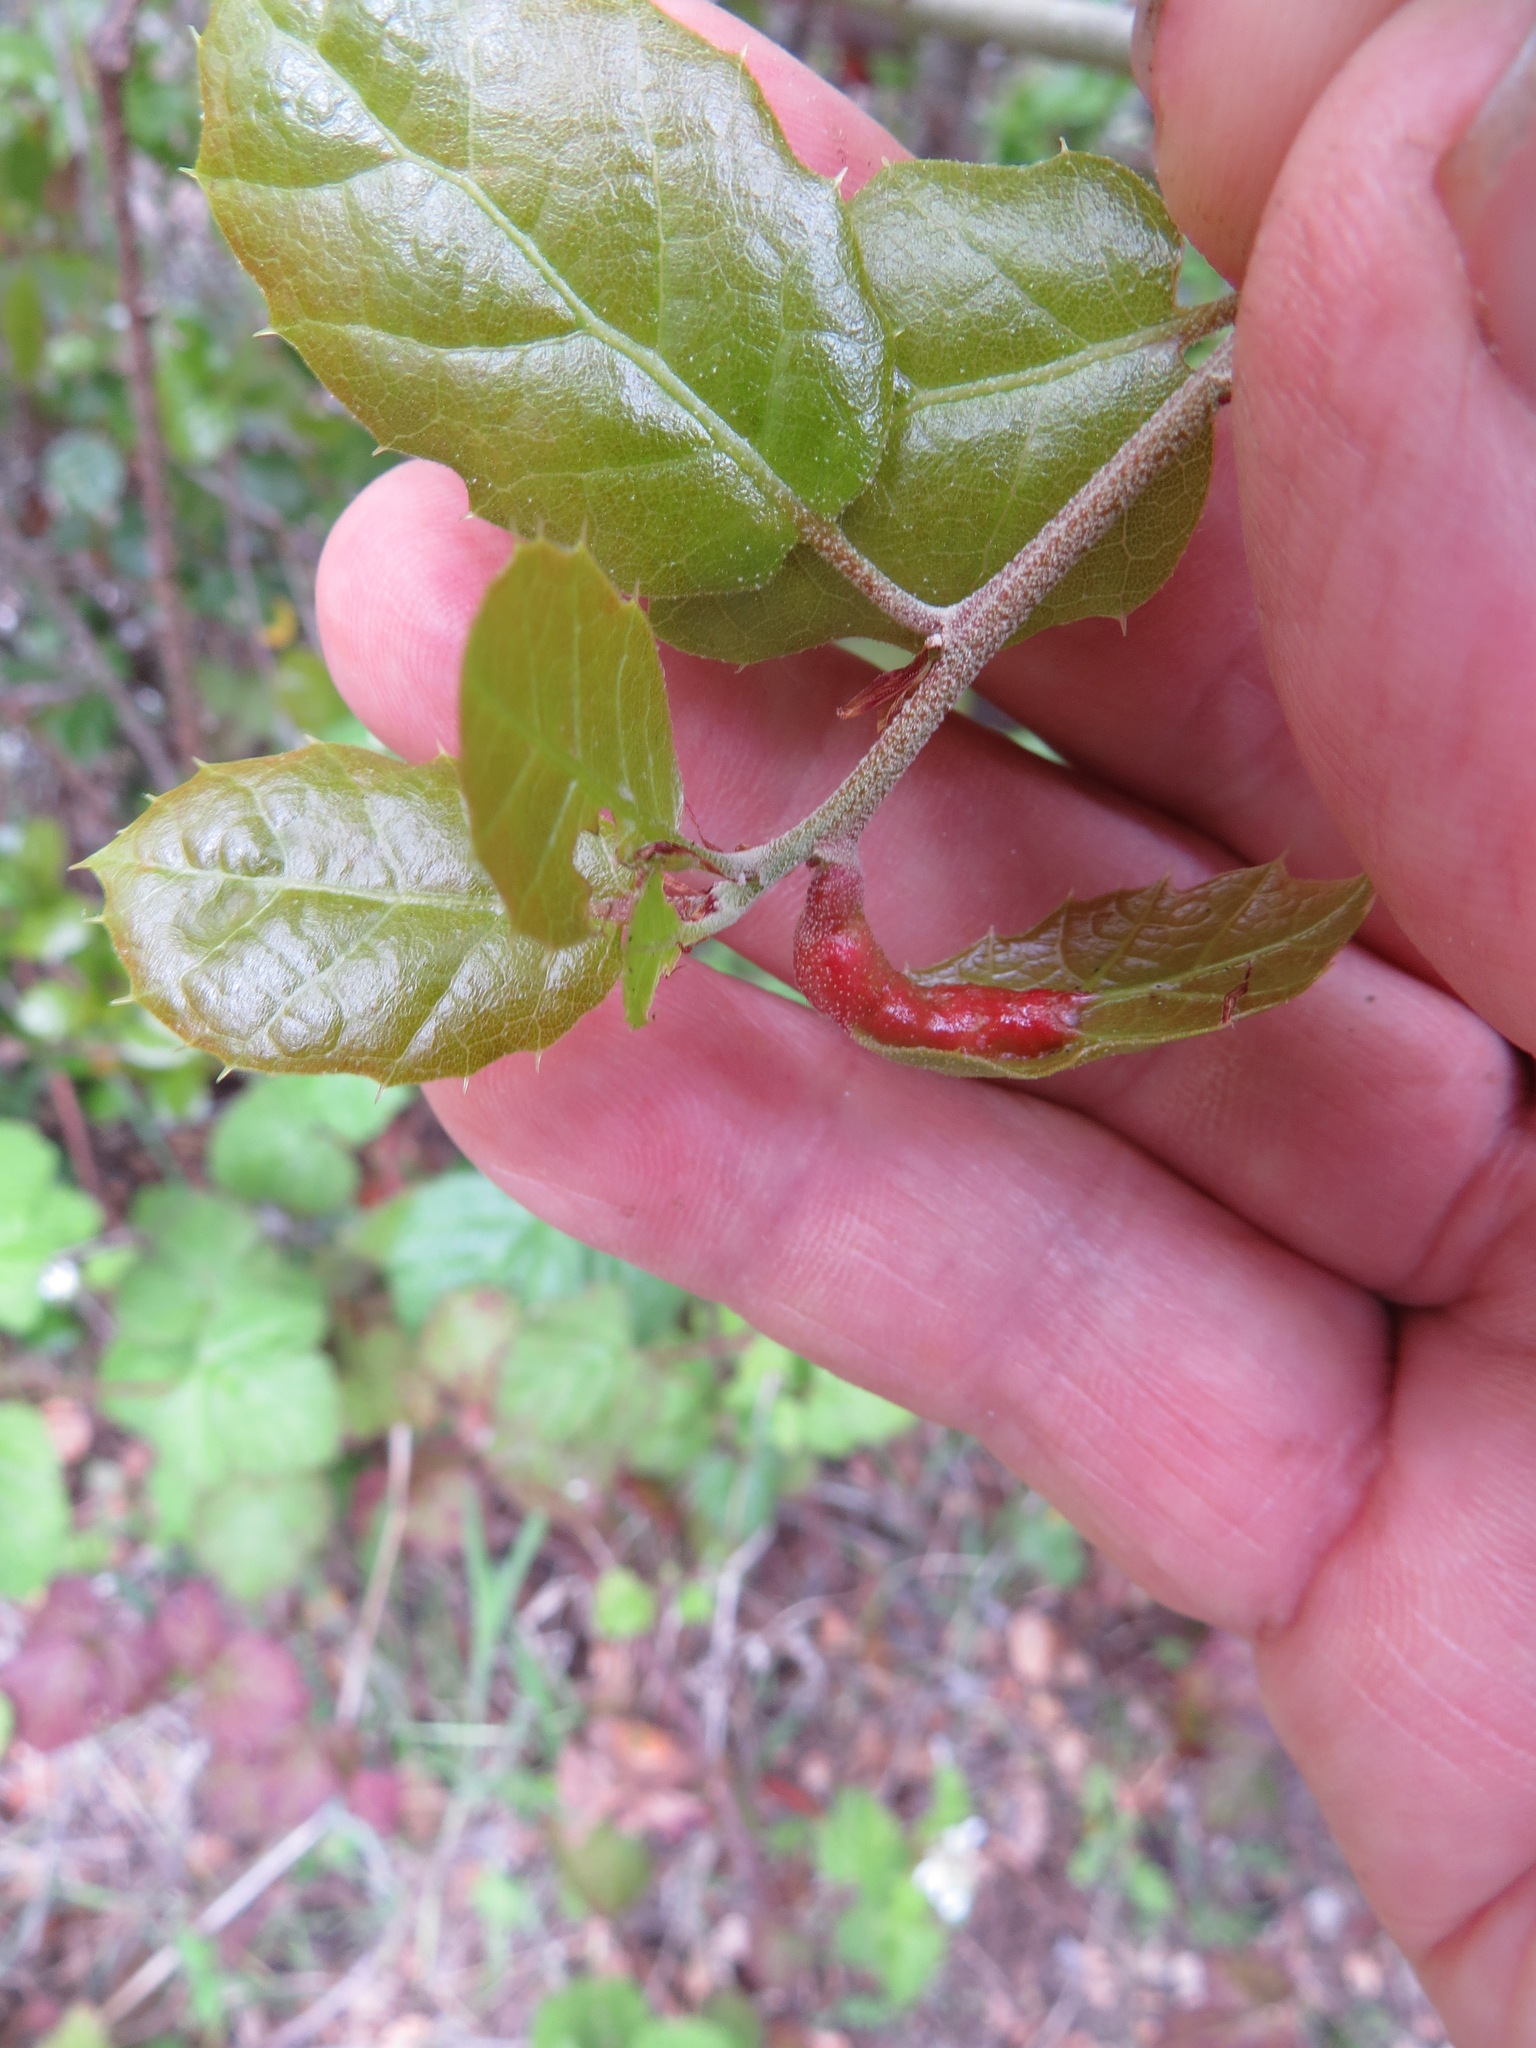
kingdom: Animalia
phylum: Arthropoda
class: Insecta
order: Hymenoptera
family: Cynipidae
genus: Melikaiella
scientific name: Melikaiella
